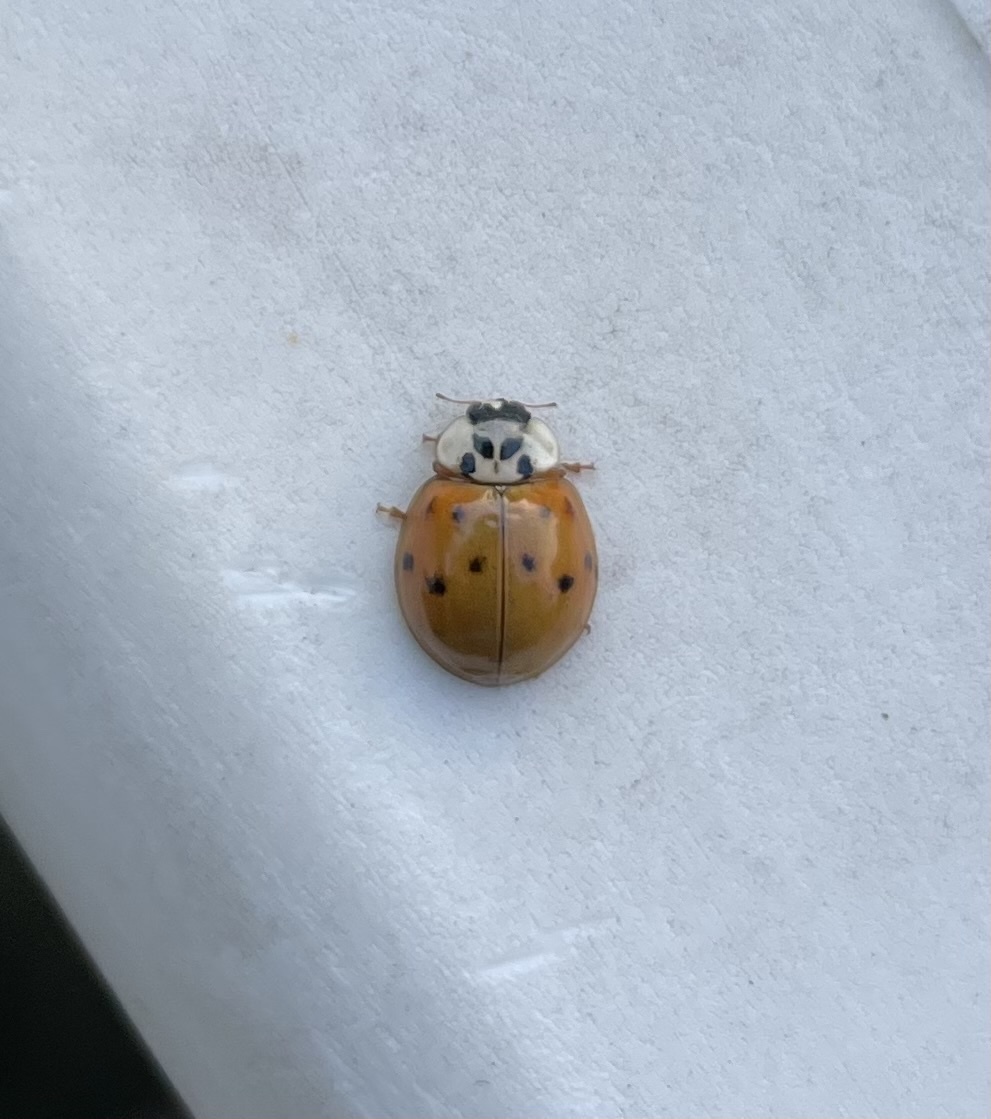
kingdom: Animalia
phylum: Arthropoda
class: Insecta
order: Coleoptera
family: Coccinellidae
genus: Harmonia
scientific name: Harmonia axyridis
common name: Harlequin ladybird
